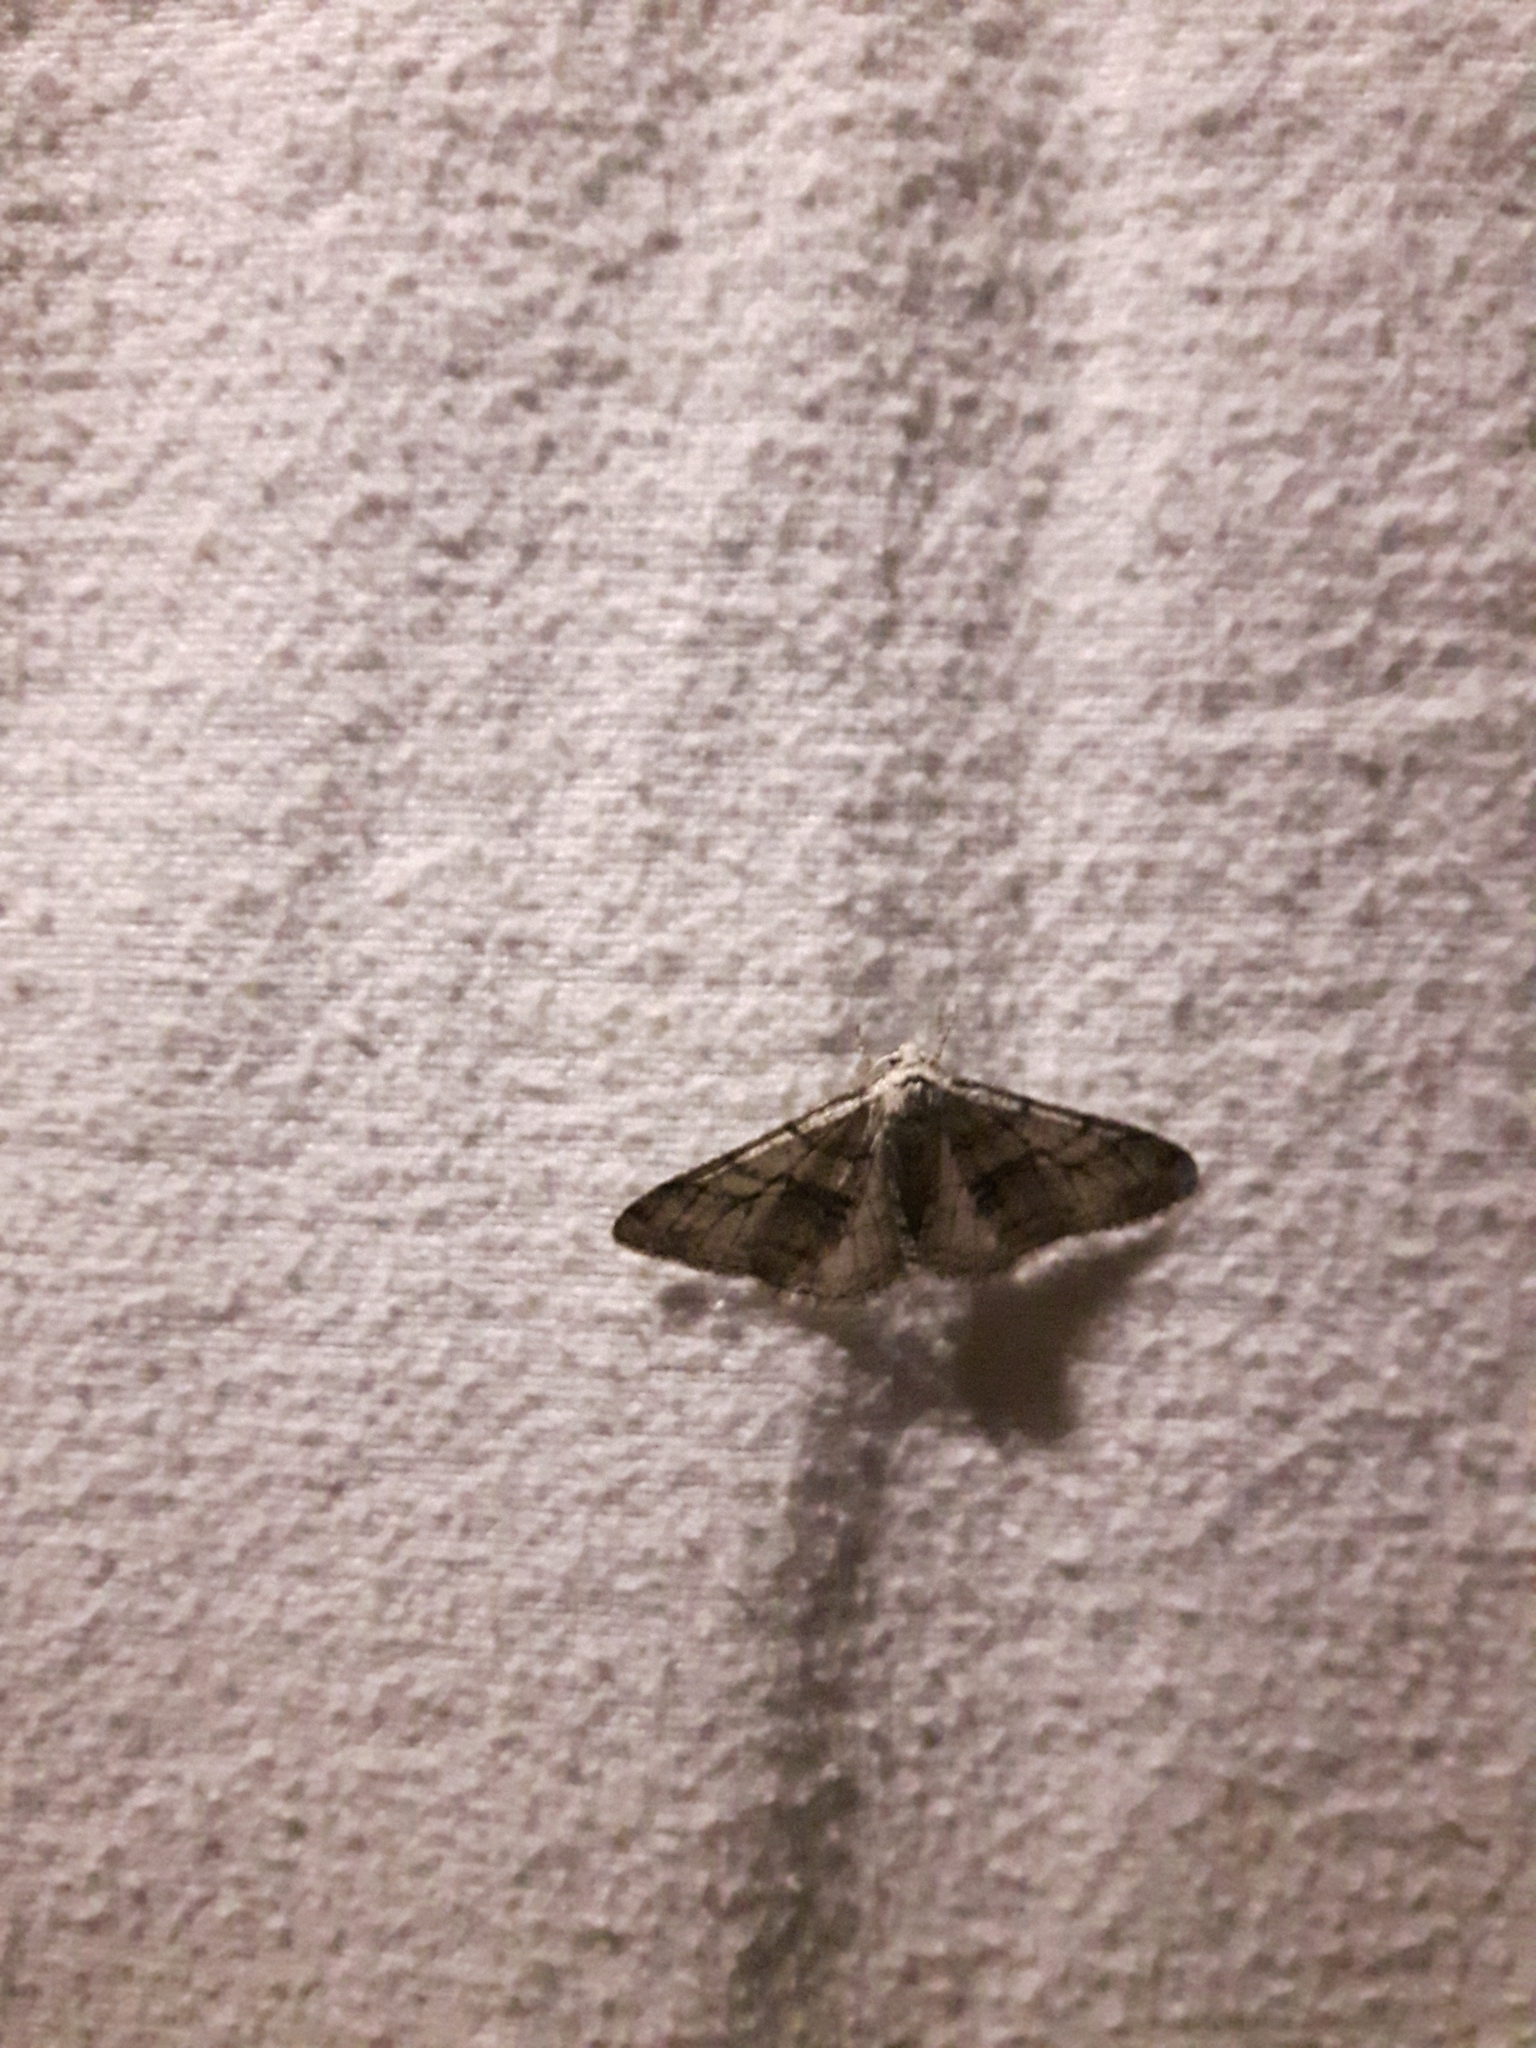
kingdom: Animalia
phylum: Arthropoda
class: Insecta
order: Lepidoptera
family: Geometridae
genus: Phigalia
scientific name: Phigalia titea
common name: Spiny looper
